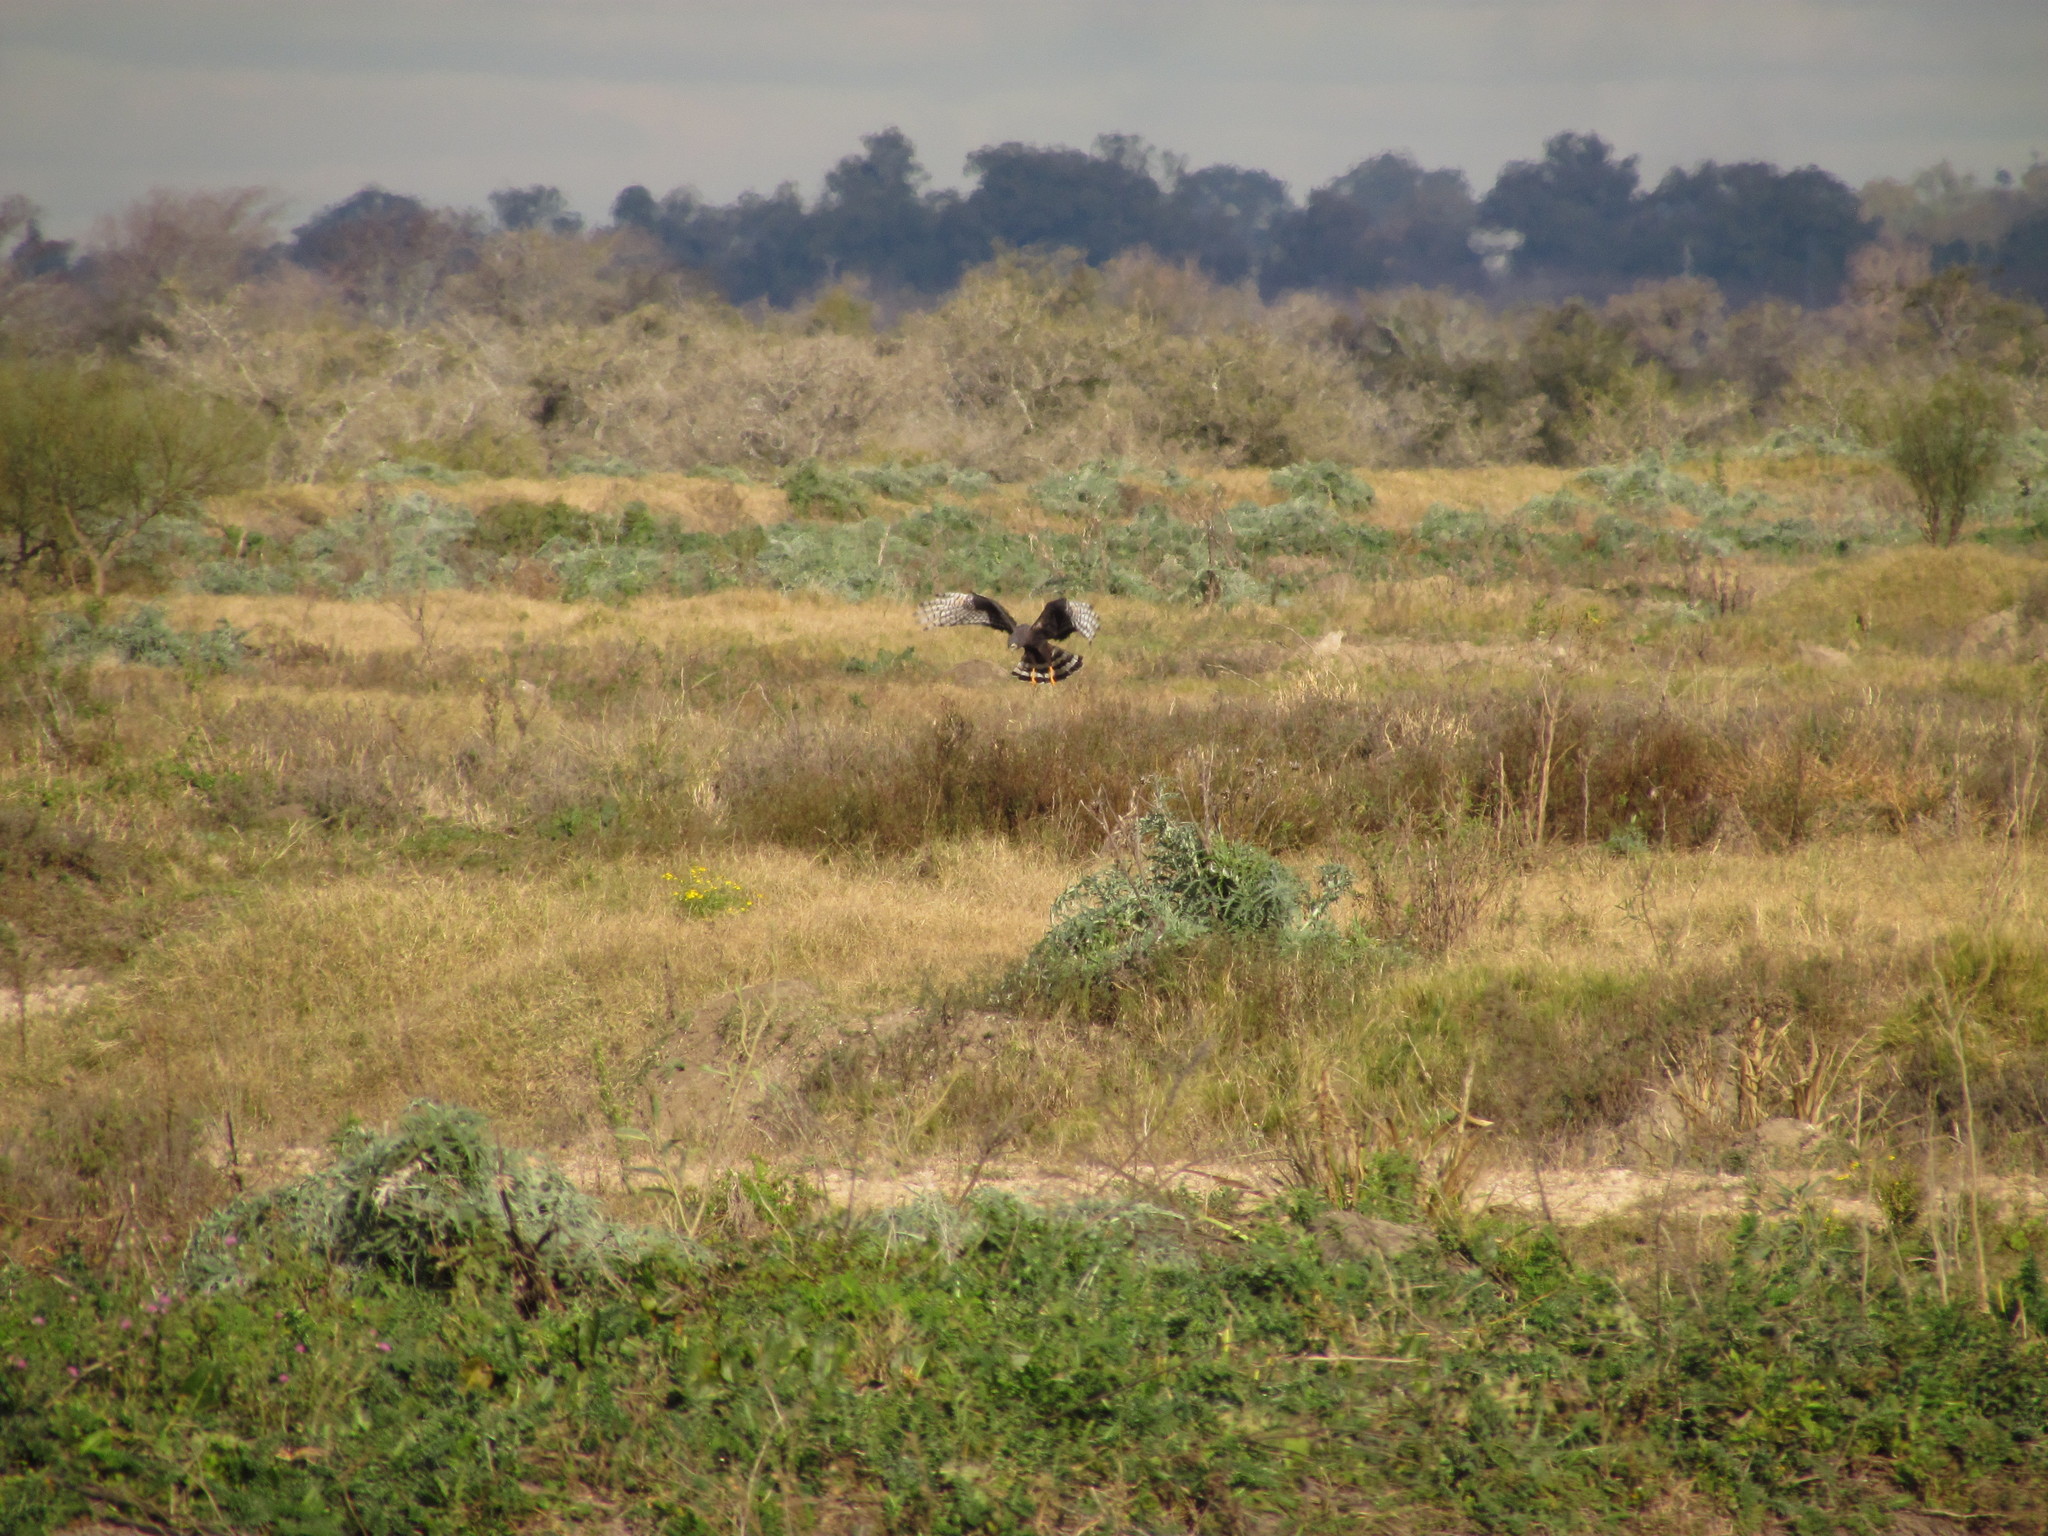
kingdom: Animalia
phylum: Chordata
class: Aves
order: Accipitriformes
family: Accipitridae
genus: Circus
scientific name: Circus buffoni
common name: Long-winged harrier
